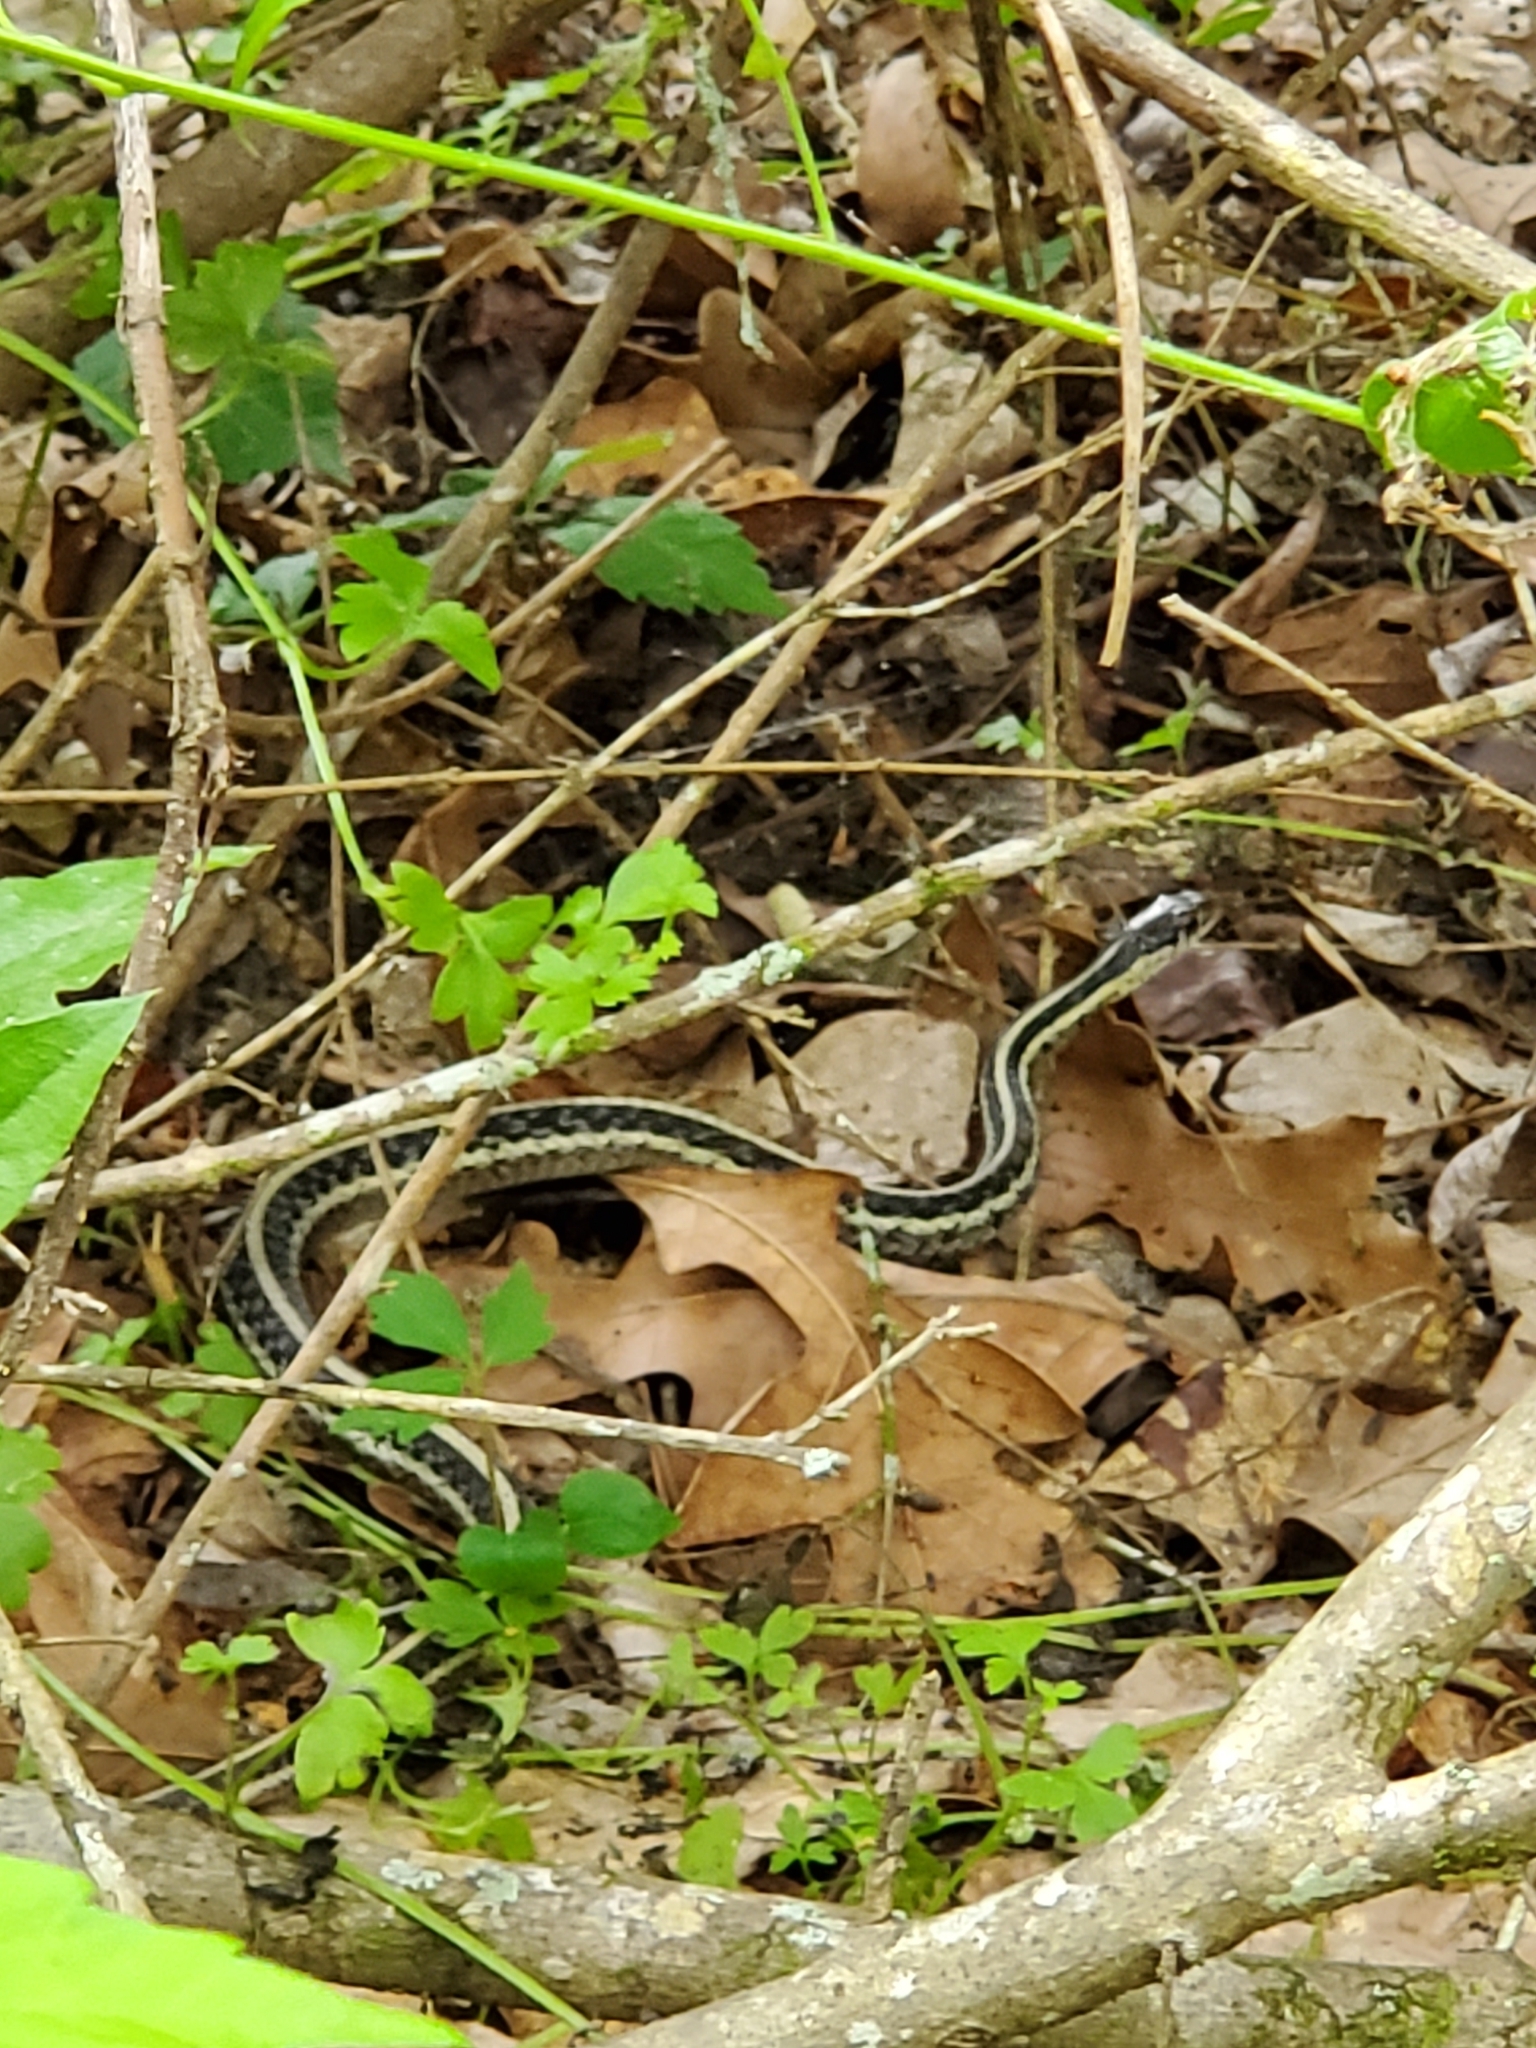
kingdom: Animalia
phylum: Chordata
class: Squamata
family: Colubridae
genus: Thamnophis
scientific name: Thamnophis sirtalis
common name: Common garter snake
